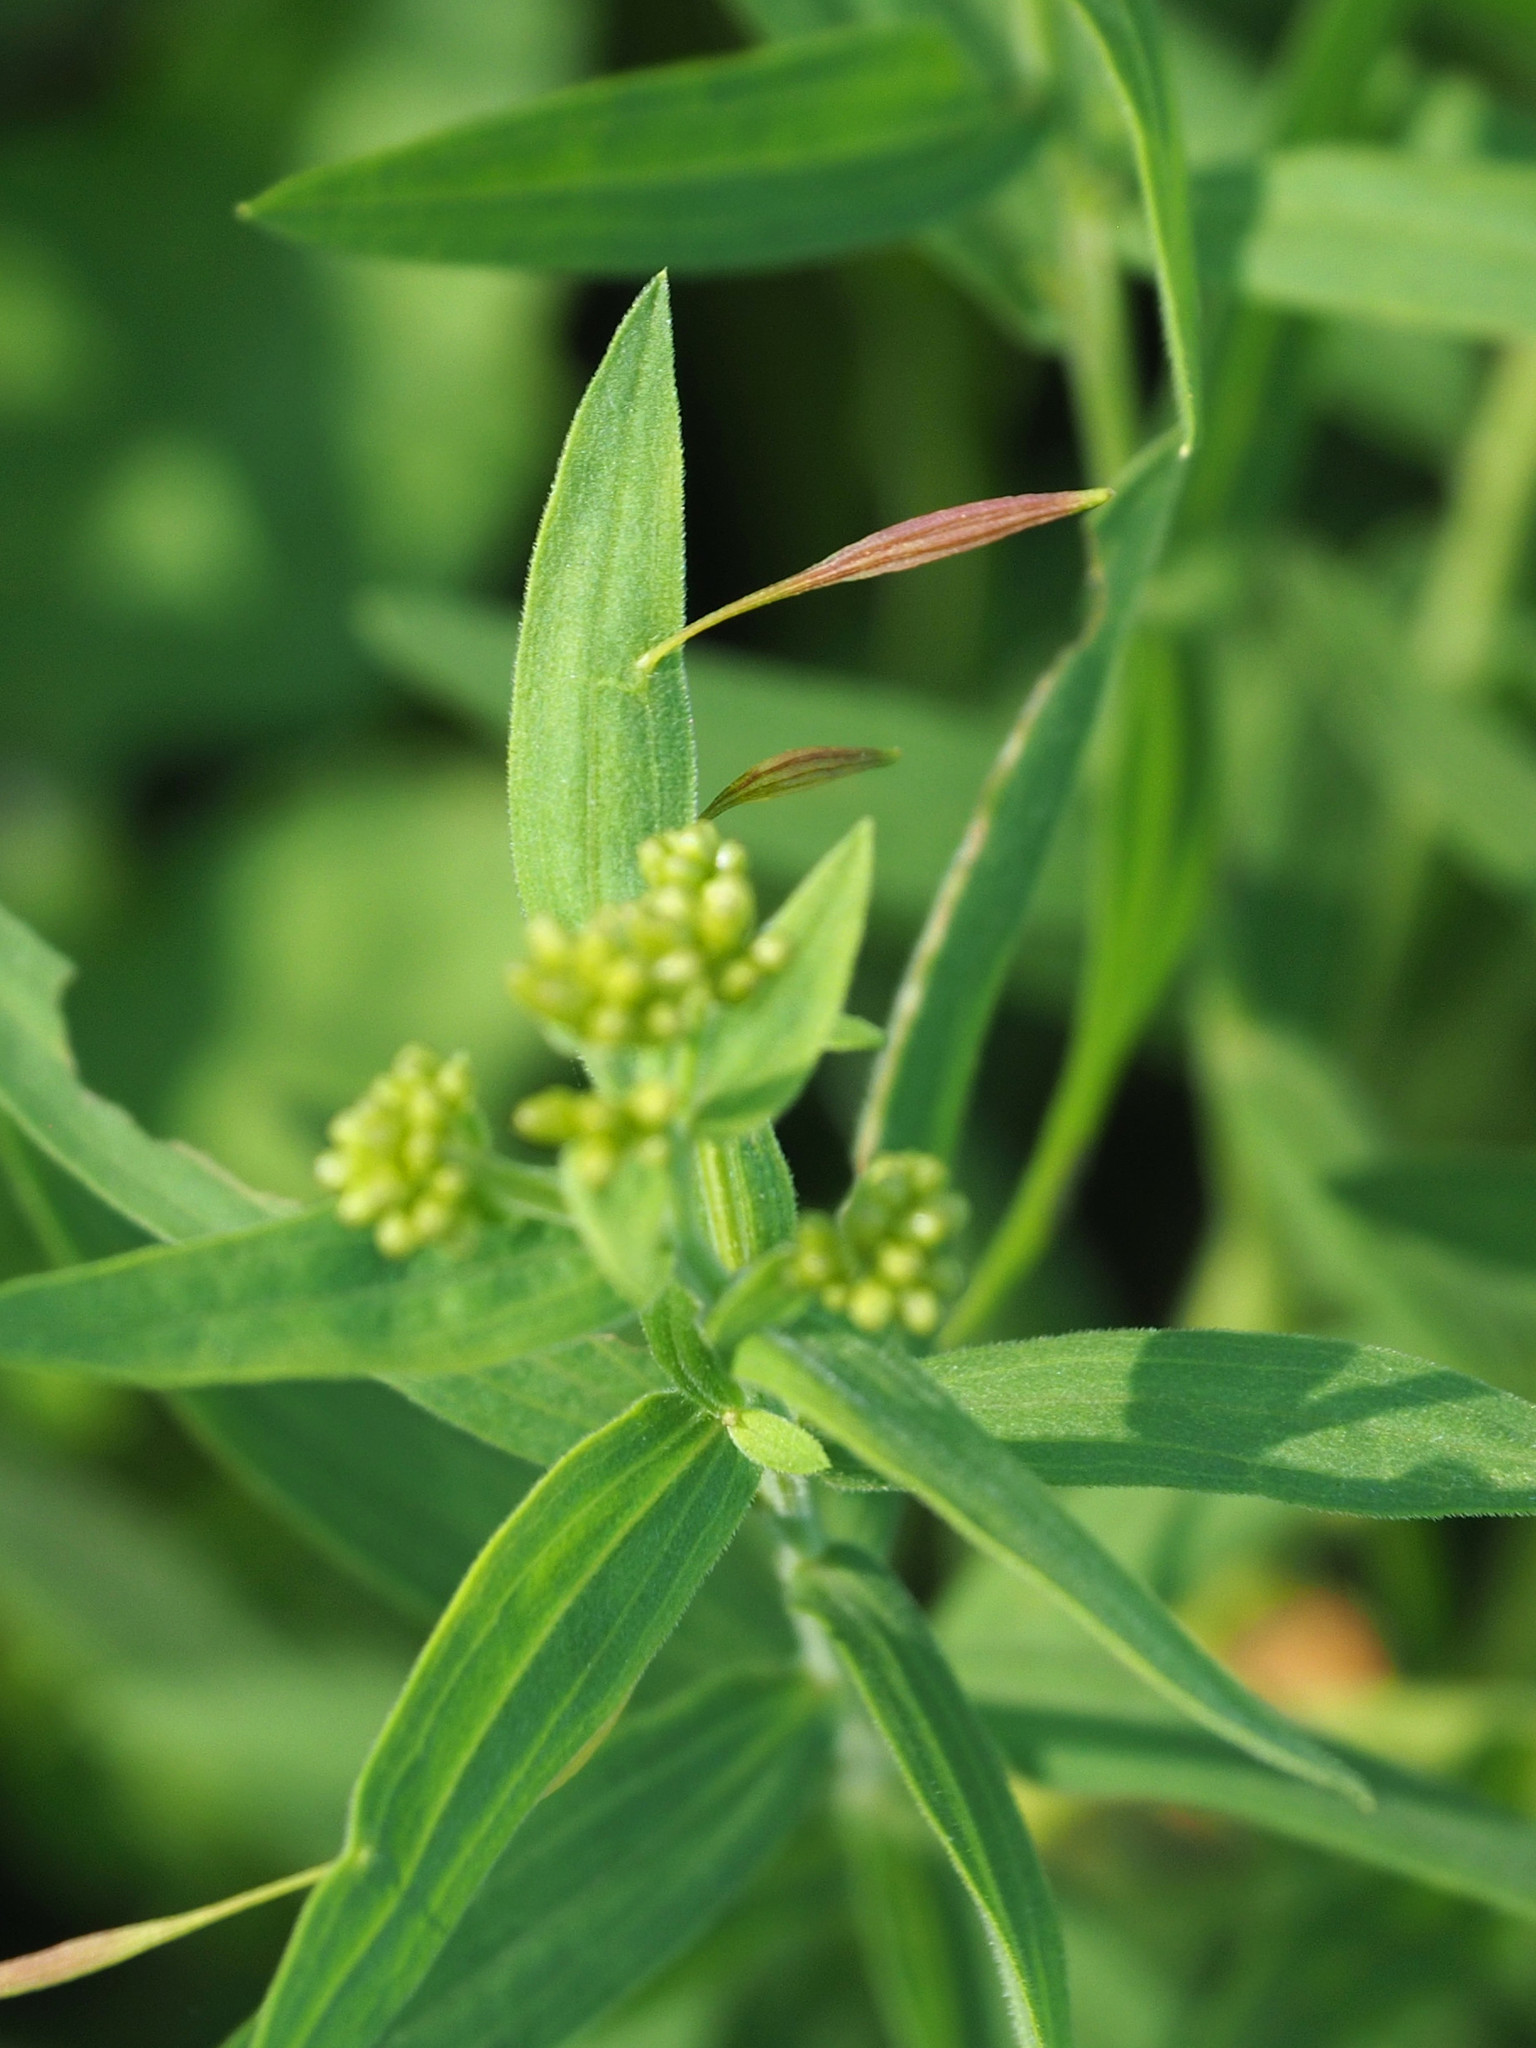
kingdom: Animalia
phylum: Arthropoda
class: Insecta
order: Diptera
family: Cecidomyiidae
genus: Rhopalomyia
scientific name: Rhopalomyia pedicellata
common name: Goldentop pedicellate gall midge
